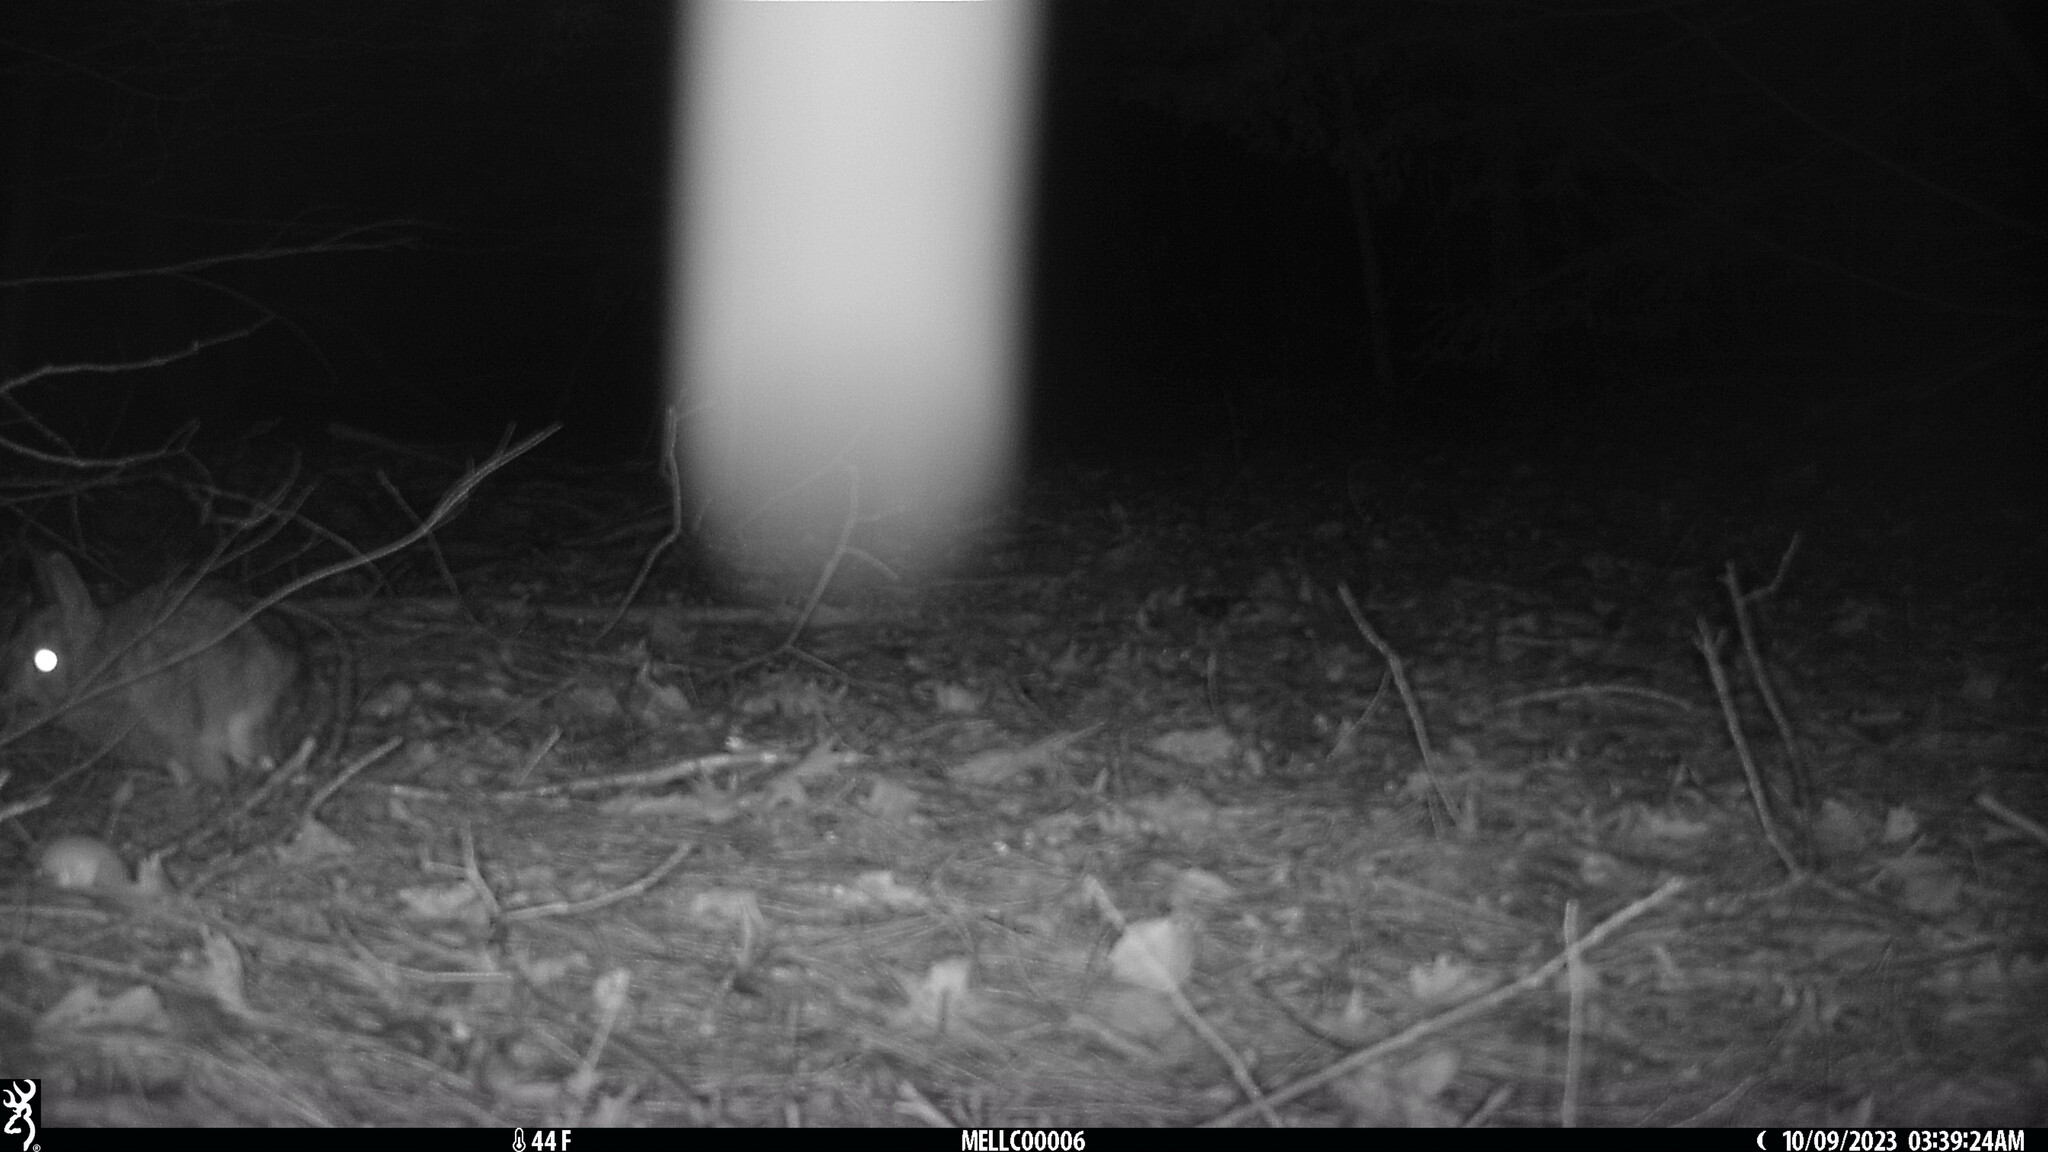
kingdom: Animalia
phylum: Chordata
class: Mammalia
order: Lagomorpha
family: Leporidae
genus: Sylvilagus
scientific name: Sylvilagus floridanus
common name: Eastern cottontail
